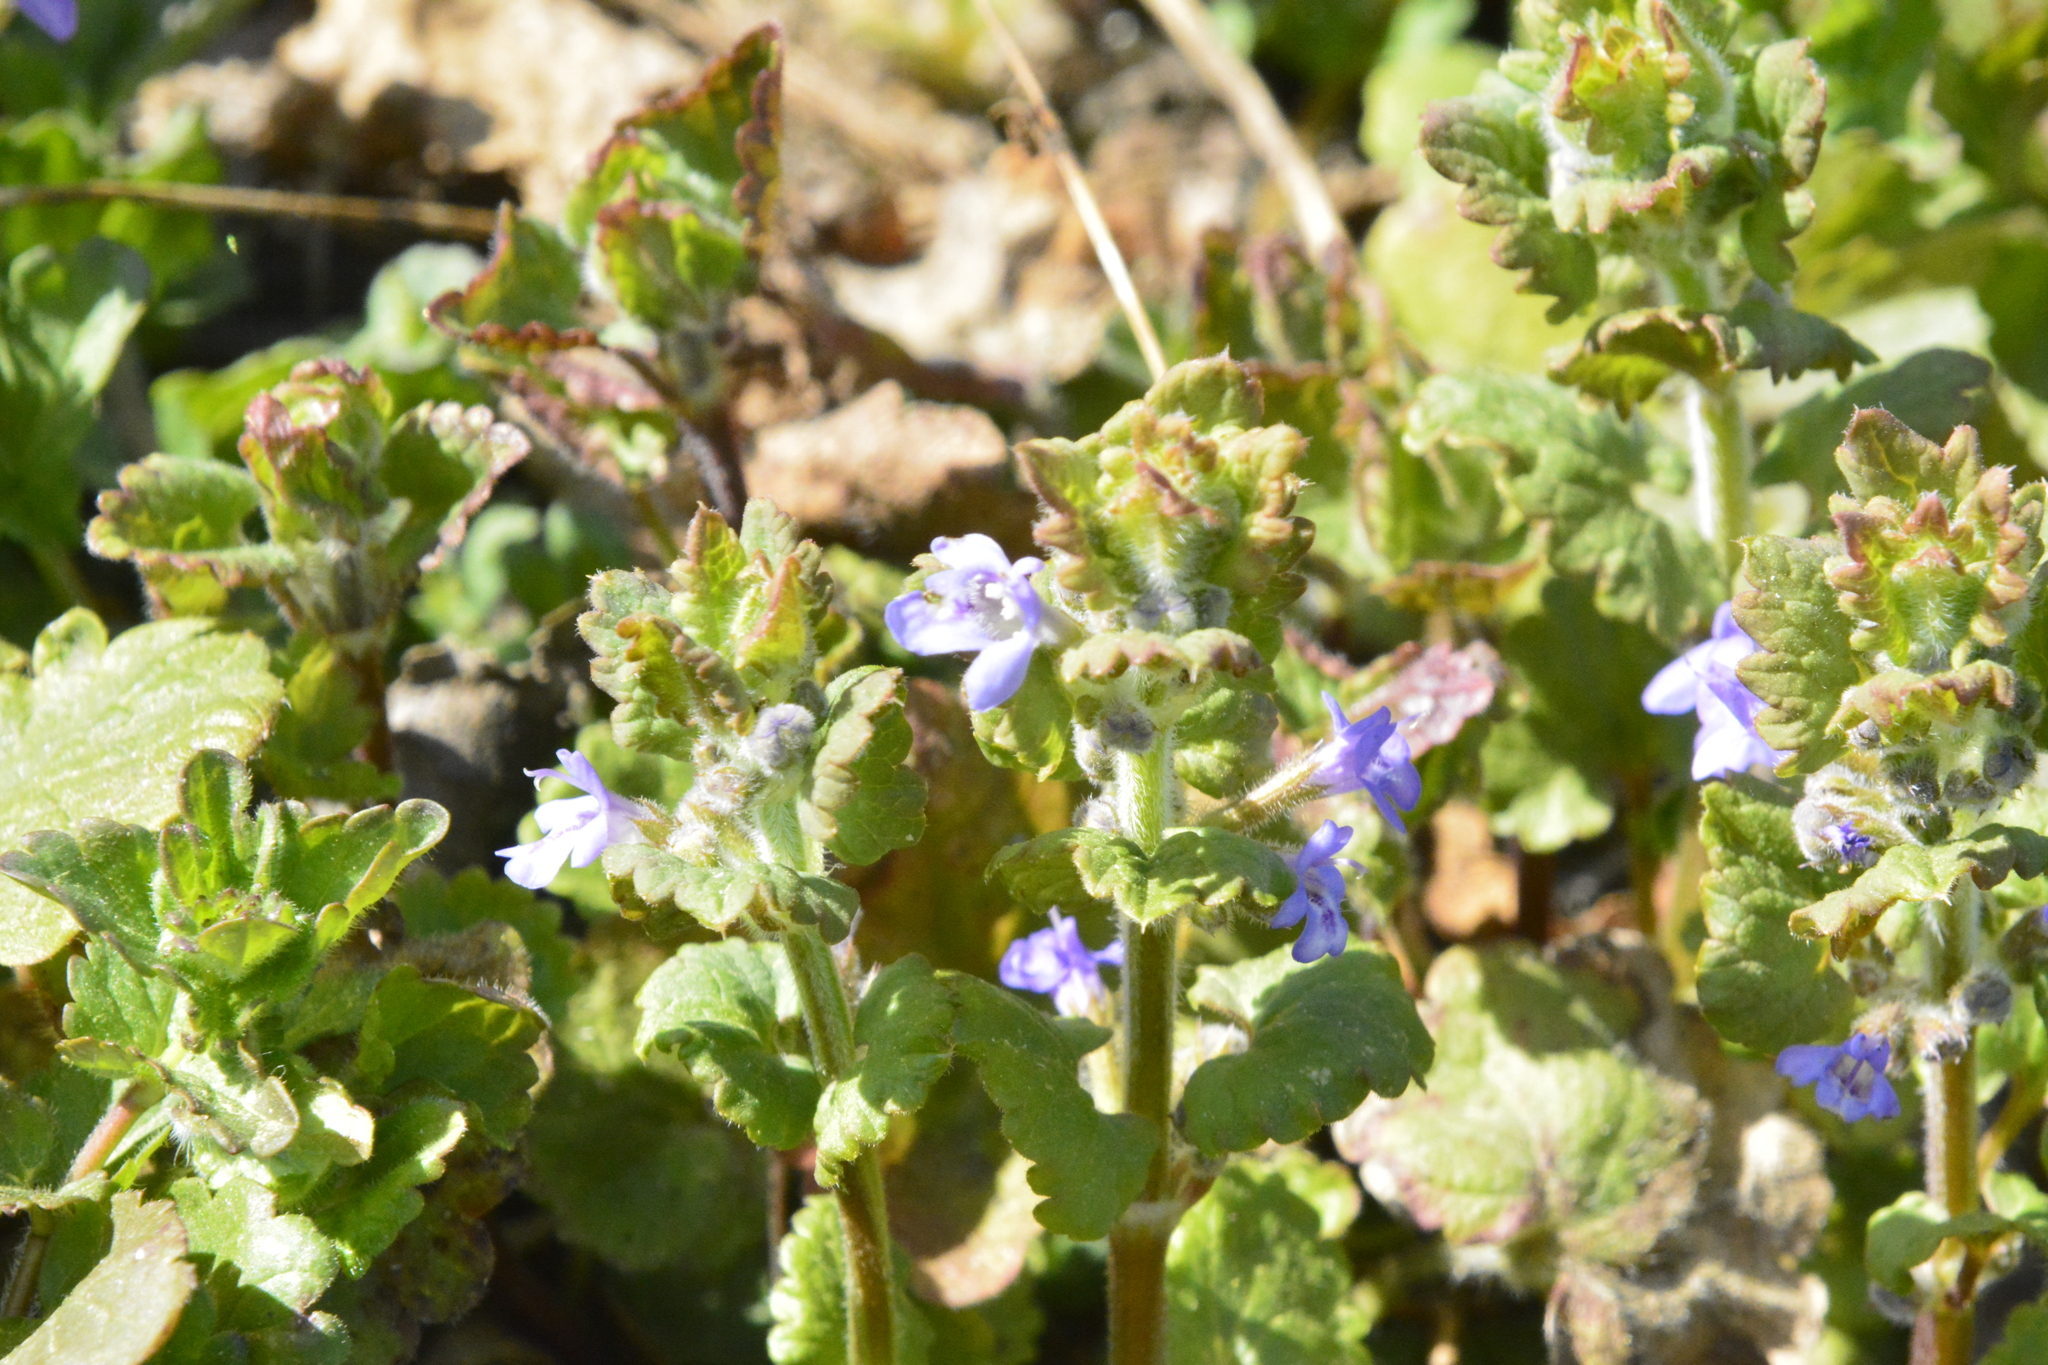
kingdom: Plantae
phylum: Tracheophyta
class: Magnoliopsida
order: Lamiales
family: Lamiaceae
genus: Glechoma
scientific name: Glechoma hederacea
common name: Ground ivy
